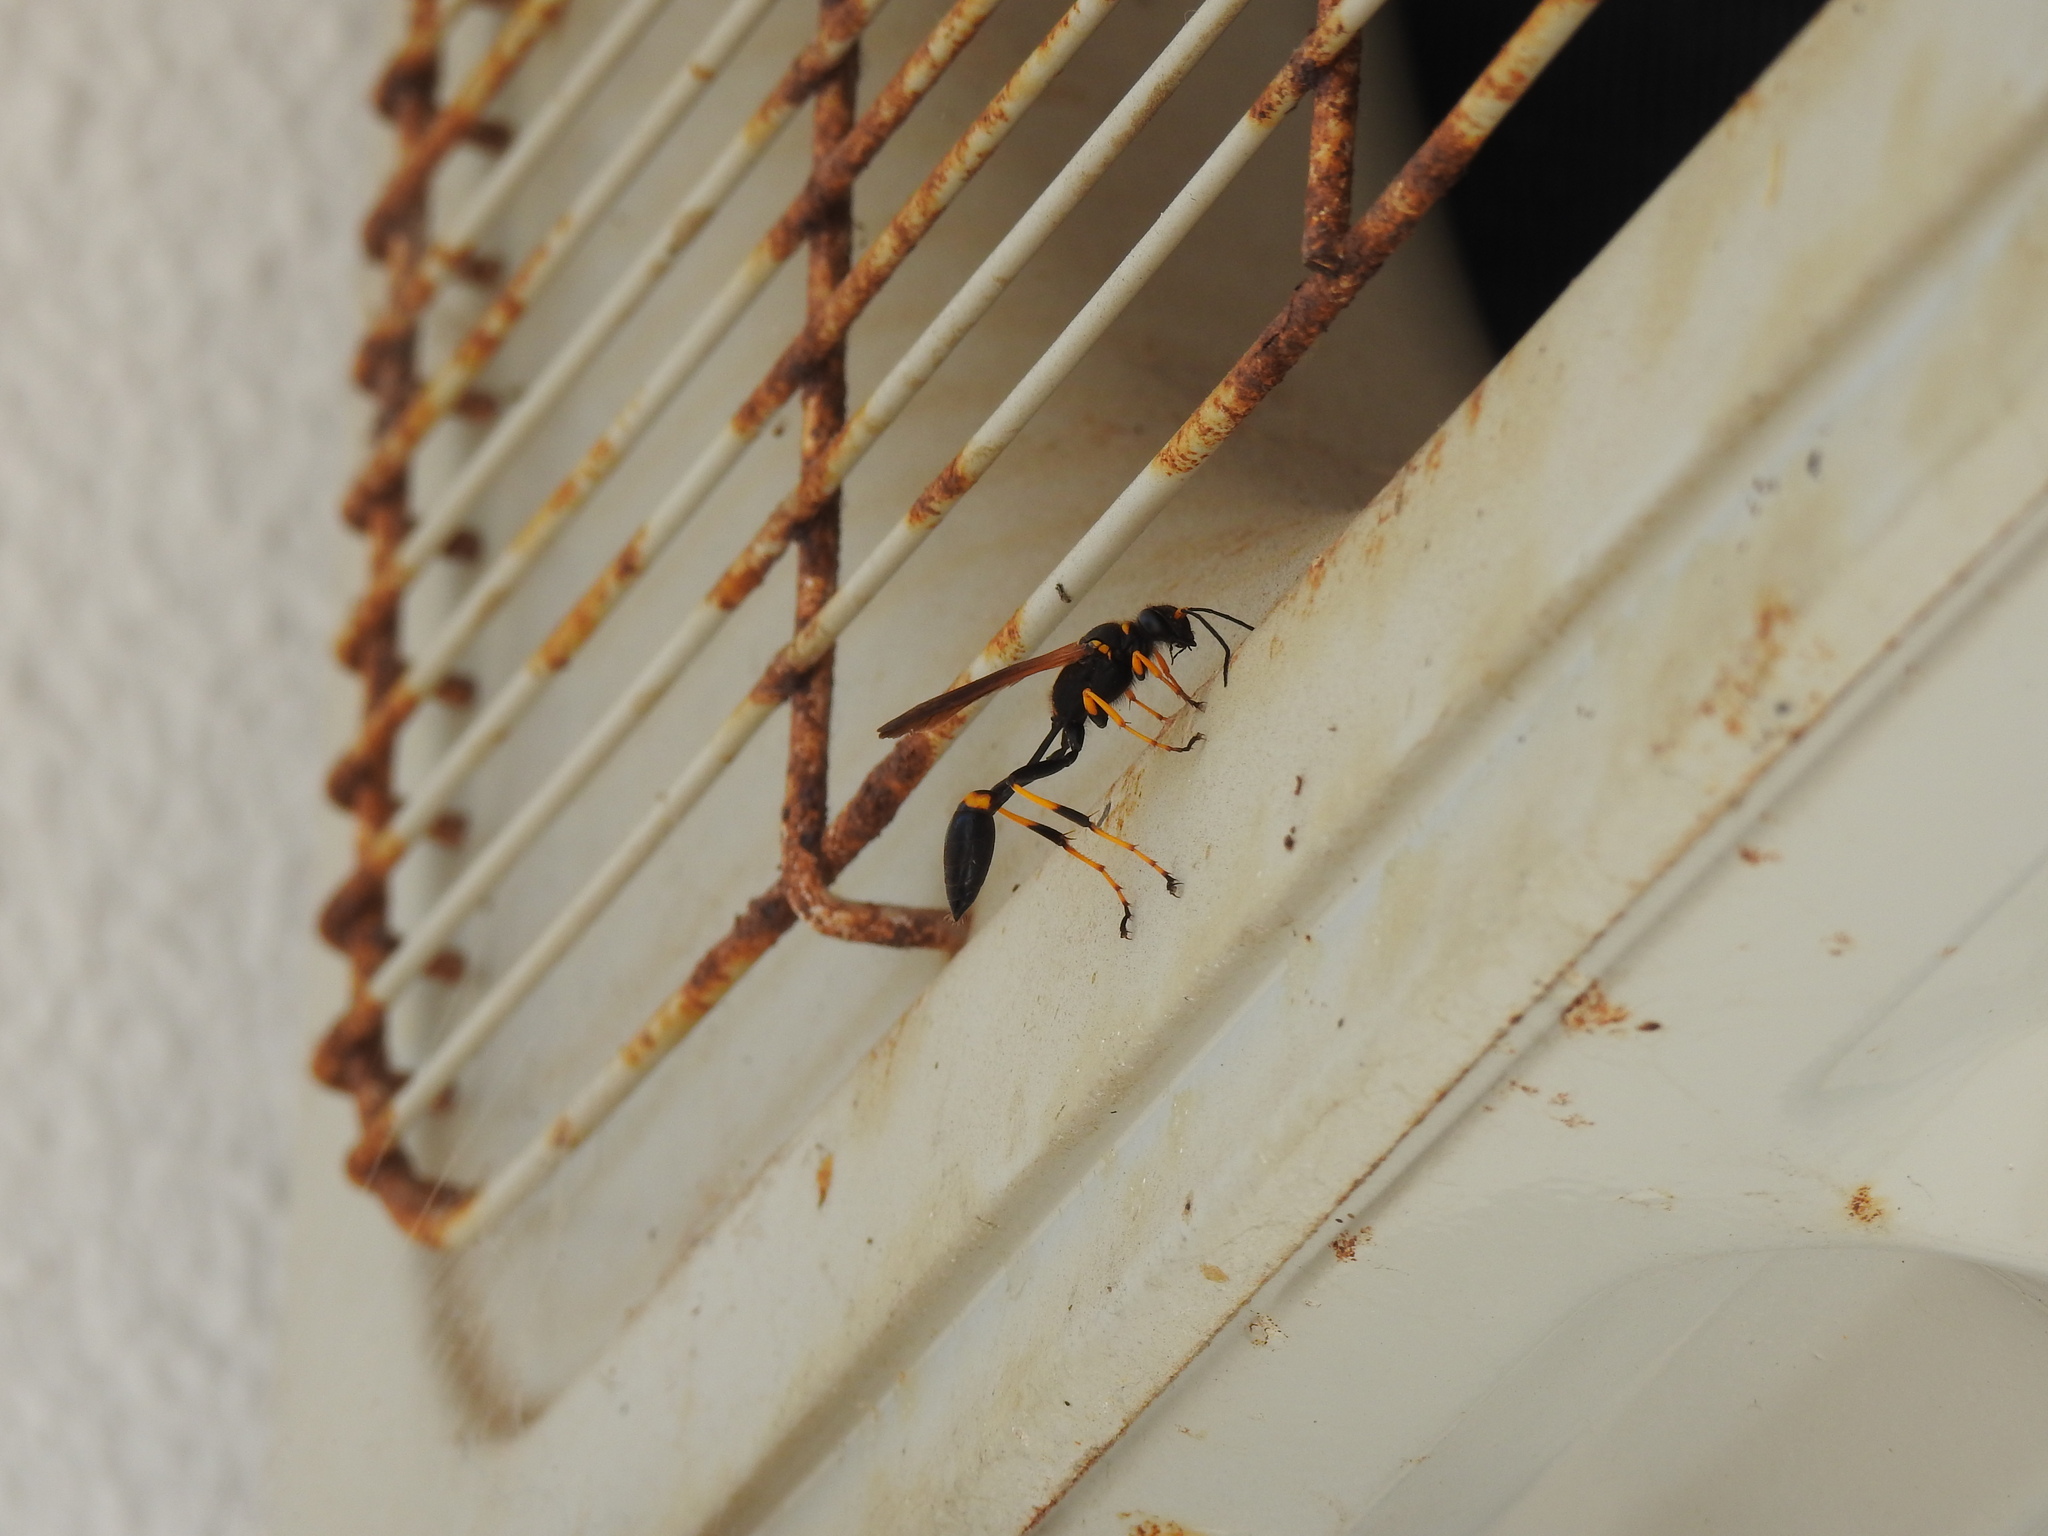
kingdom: Animalia
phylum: Arthropoda
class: Insecta
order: Hymenoptera
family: Sphecidae
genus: Sceliphron
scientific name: Sceliphron caementarium
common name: Mud dauber
